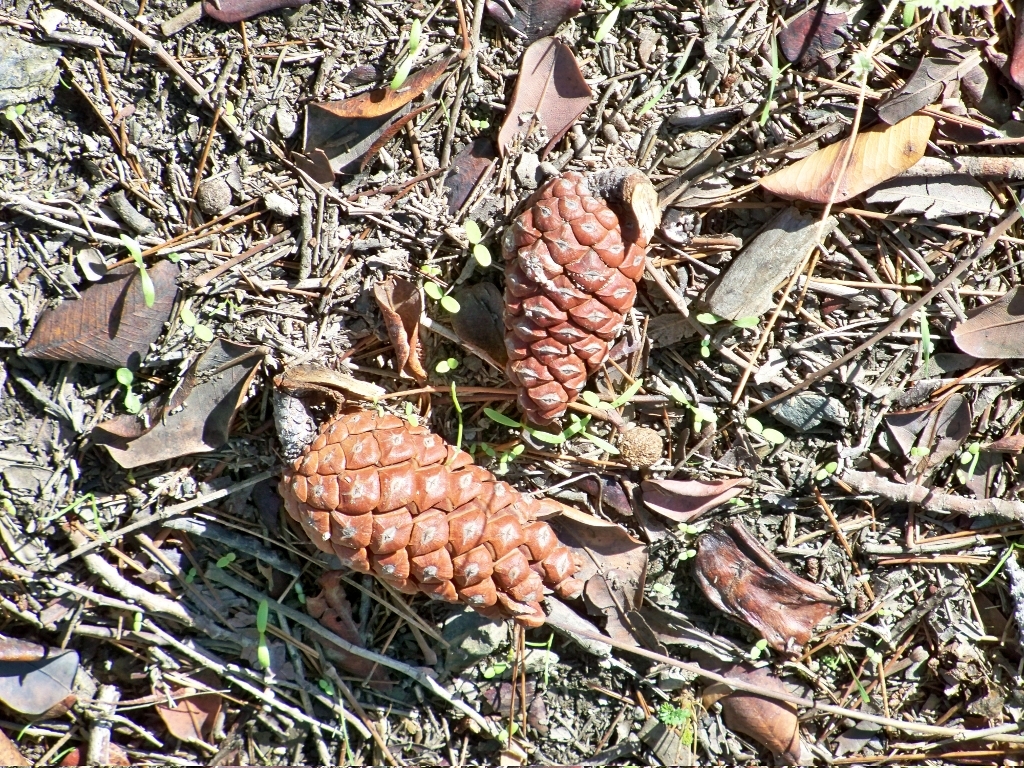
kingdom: Plantae
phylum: Tracheophyta
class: Pinopsida
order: Pinales
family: Pinaceae
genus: Pinus
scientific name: Pinus halepensis
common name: Aleppo pine
